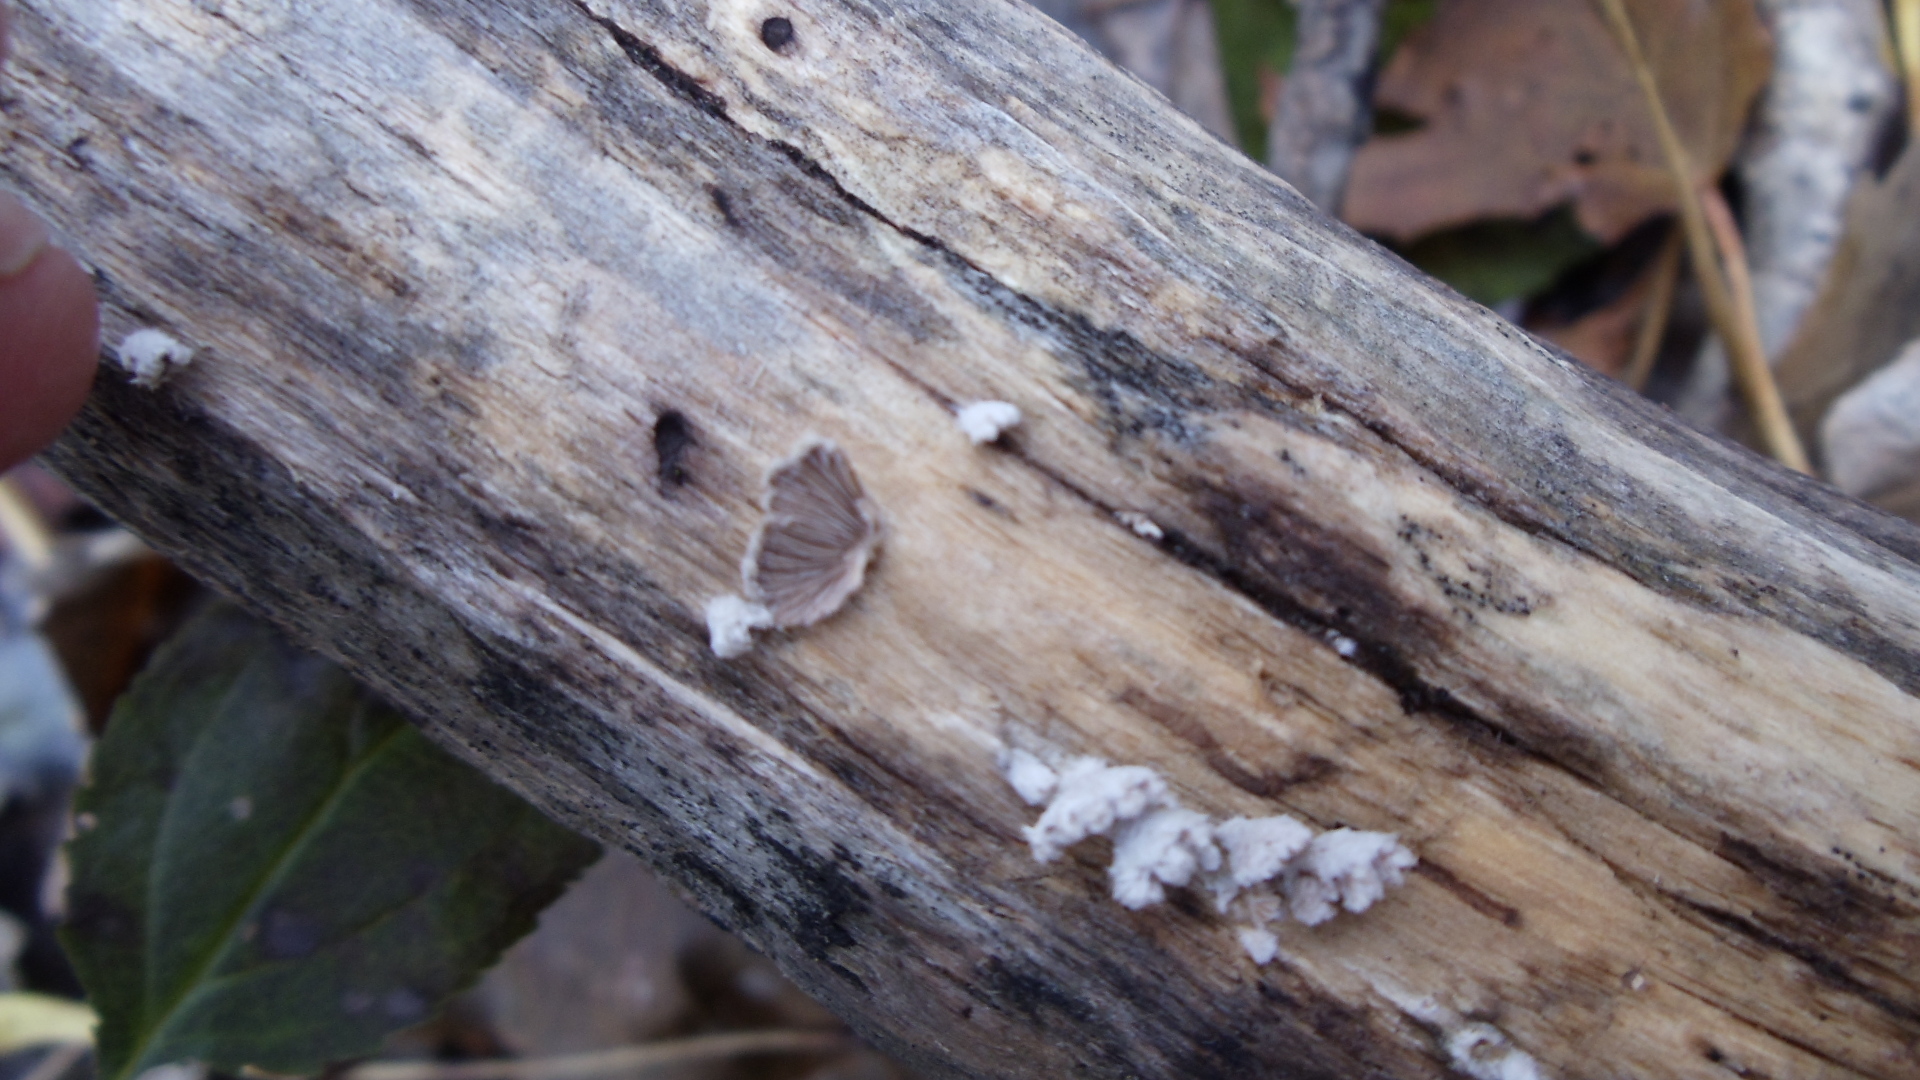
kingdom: Fungi
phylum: Basidiomycota
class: Agaricomycetes
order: Agaricales
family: Schizophyllaceae
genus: Schizophyllum
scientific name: Schizophyllum commune
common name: Common porecrust
